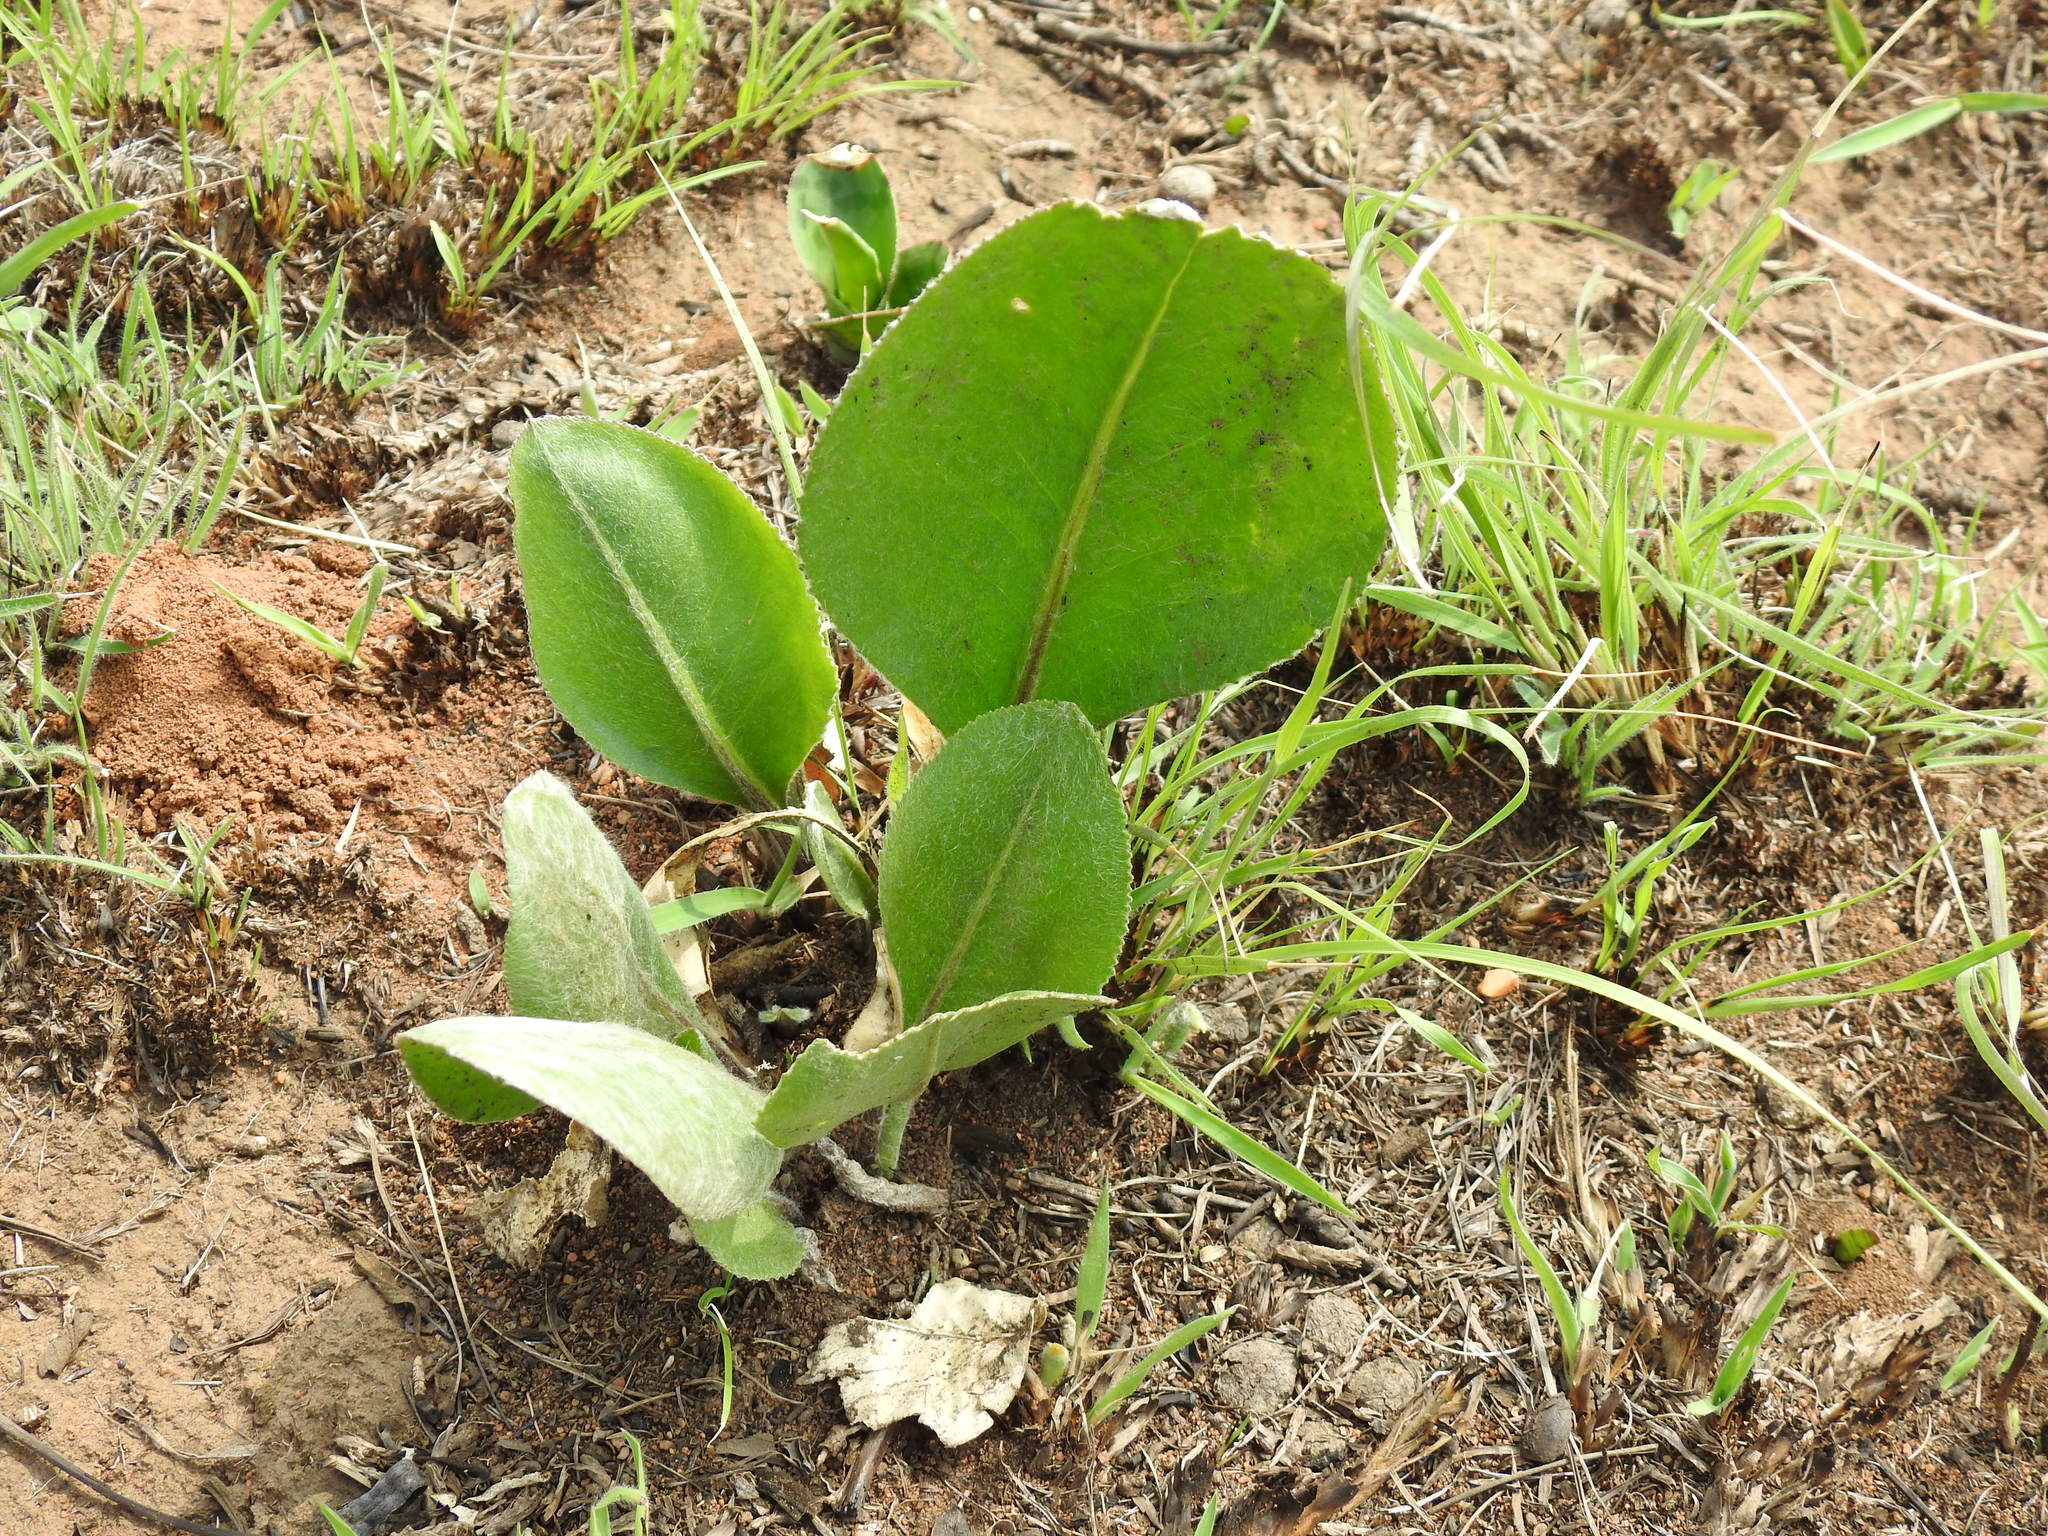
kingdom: Plantae
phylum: Tracheophyta
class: Magnoliopsida
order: Asterales
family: Asteraceae
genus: Senecio
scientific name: Senecio coronatus
